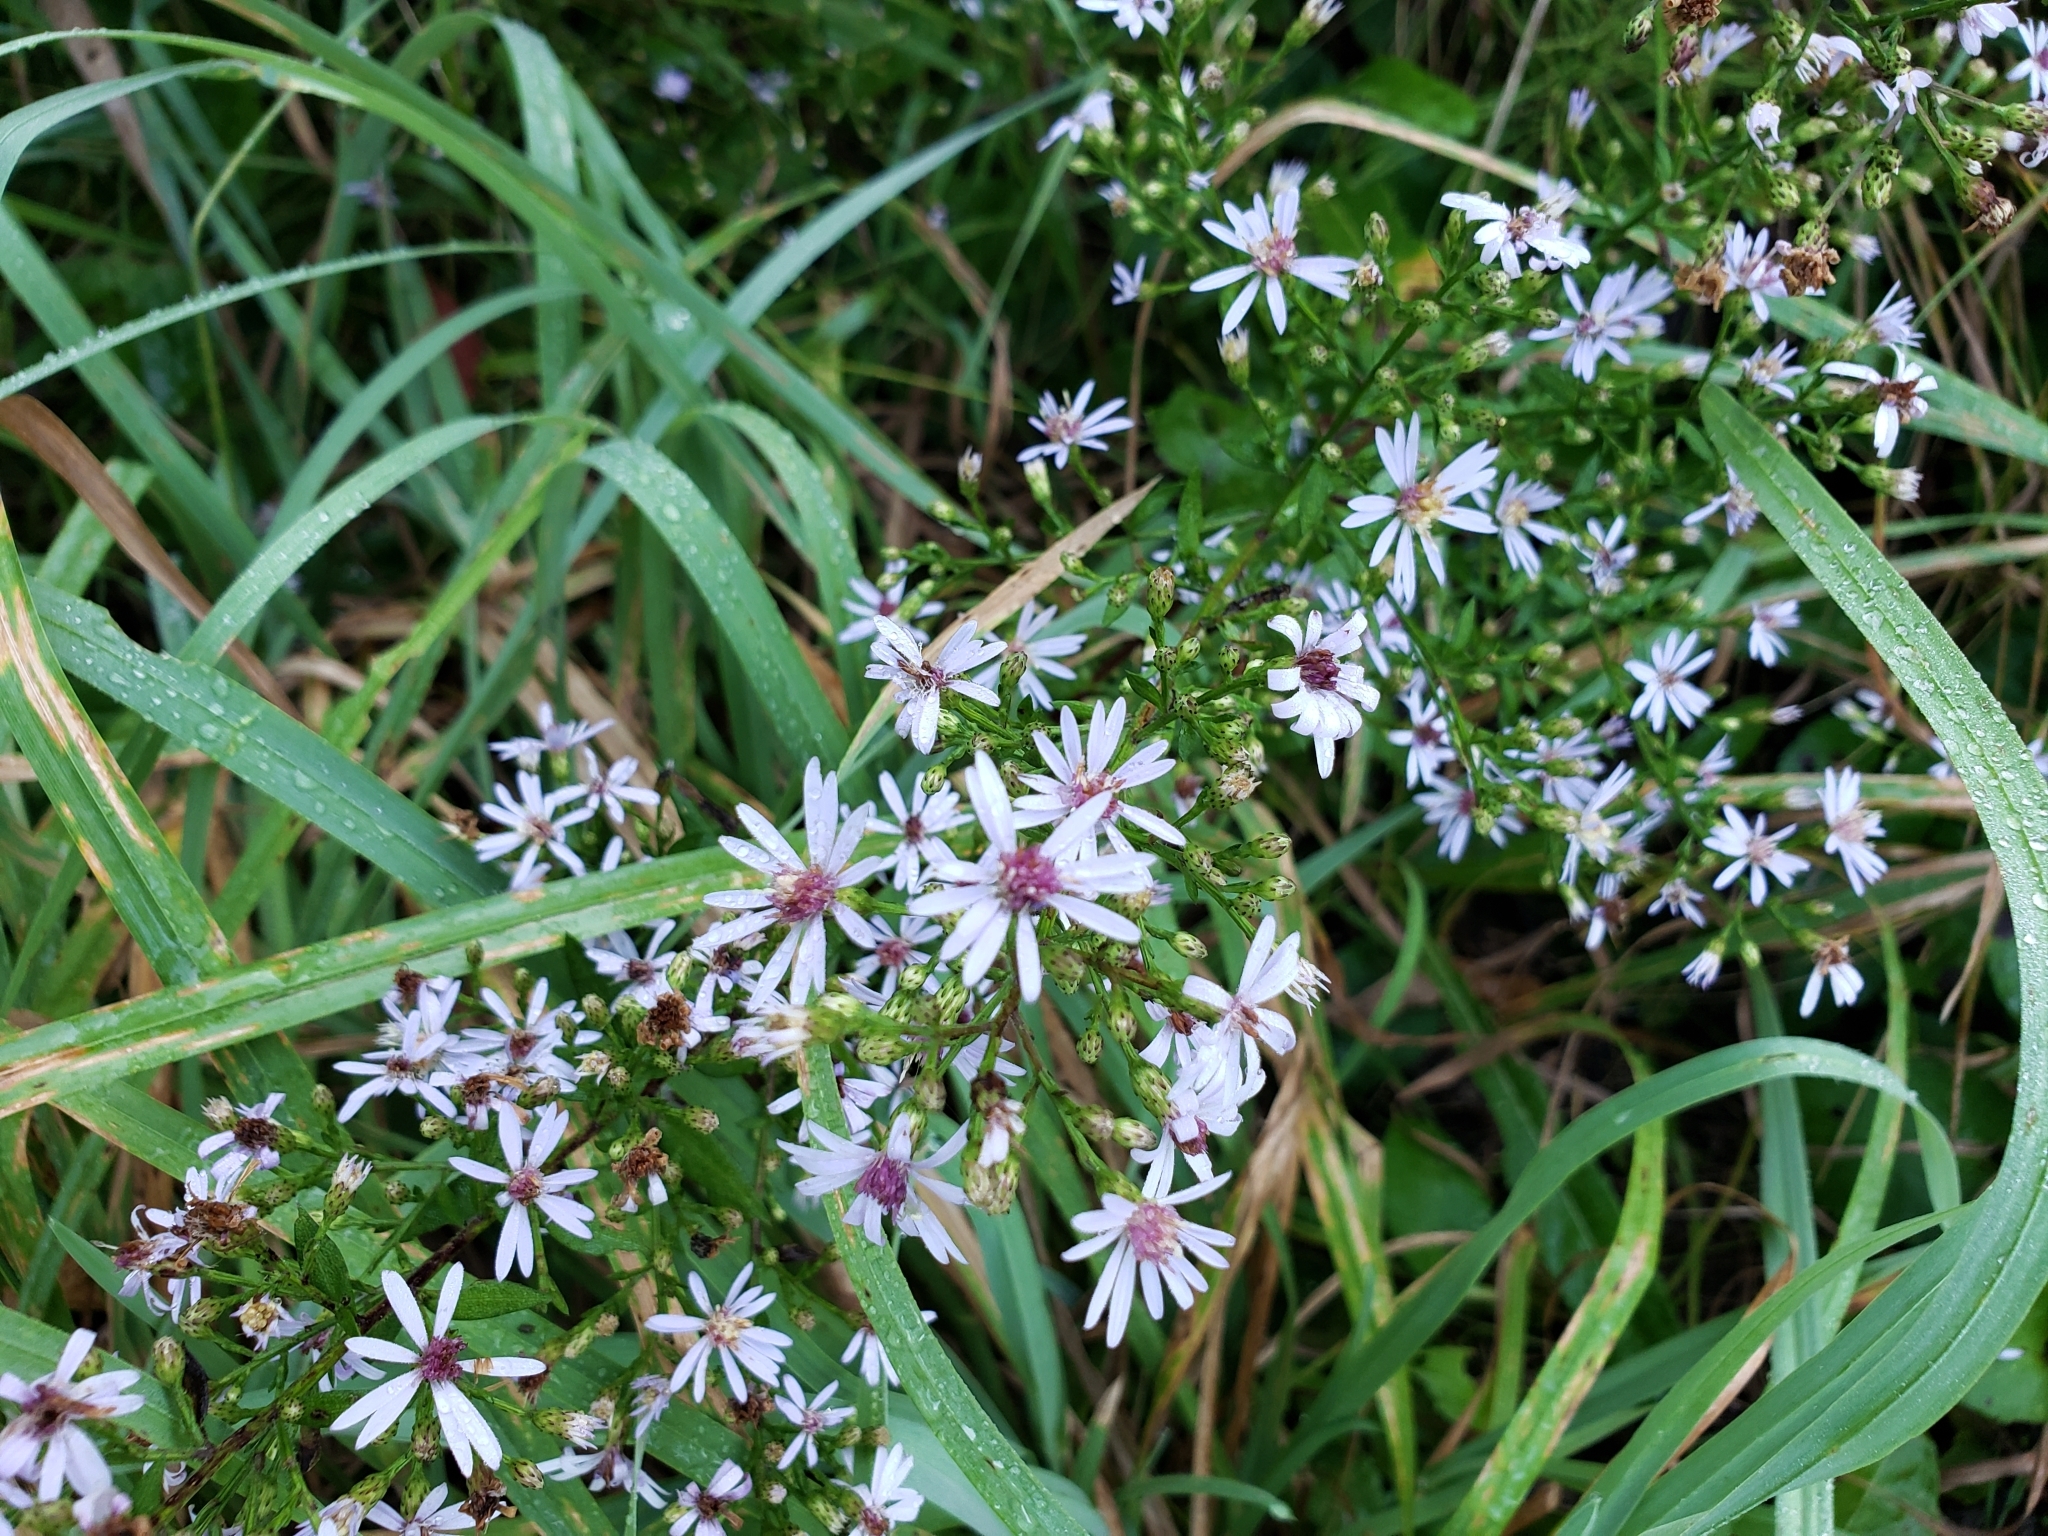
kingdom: Plantae
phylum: Tracheophyta
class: Magnoliopsida
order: Asterales
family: Asteraceae
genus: Symphyotrichum
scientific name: Symphyotrichum cordifolium
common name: Beeweed
